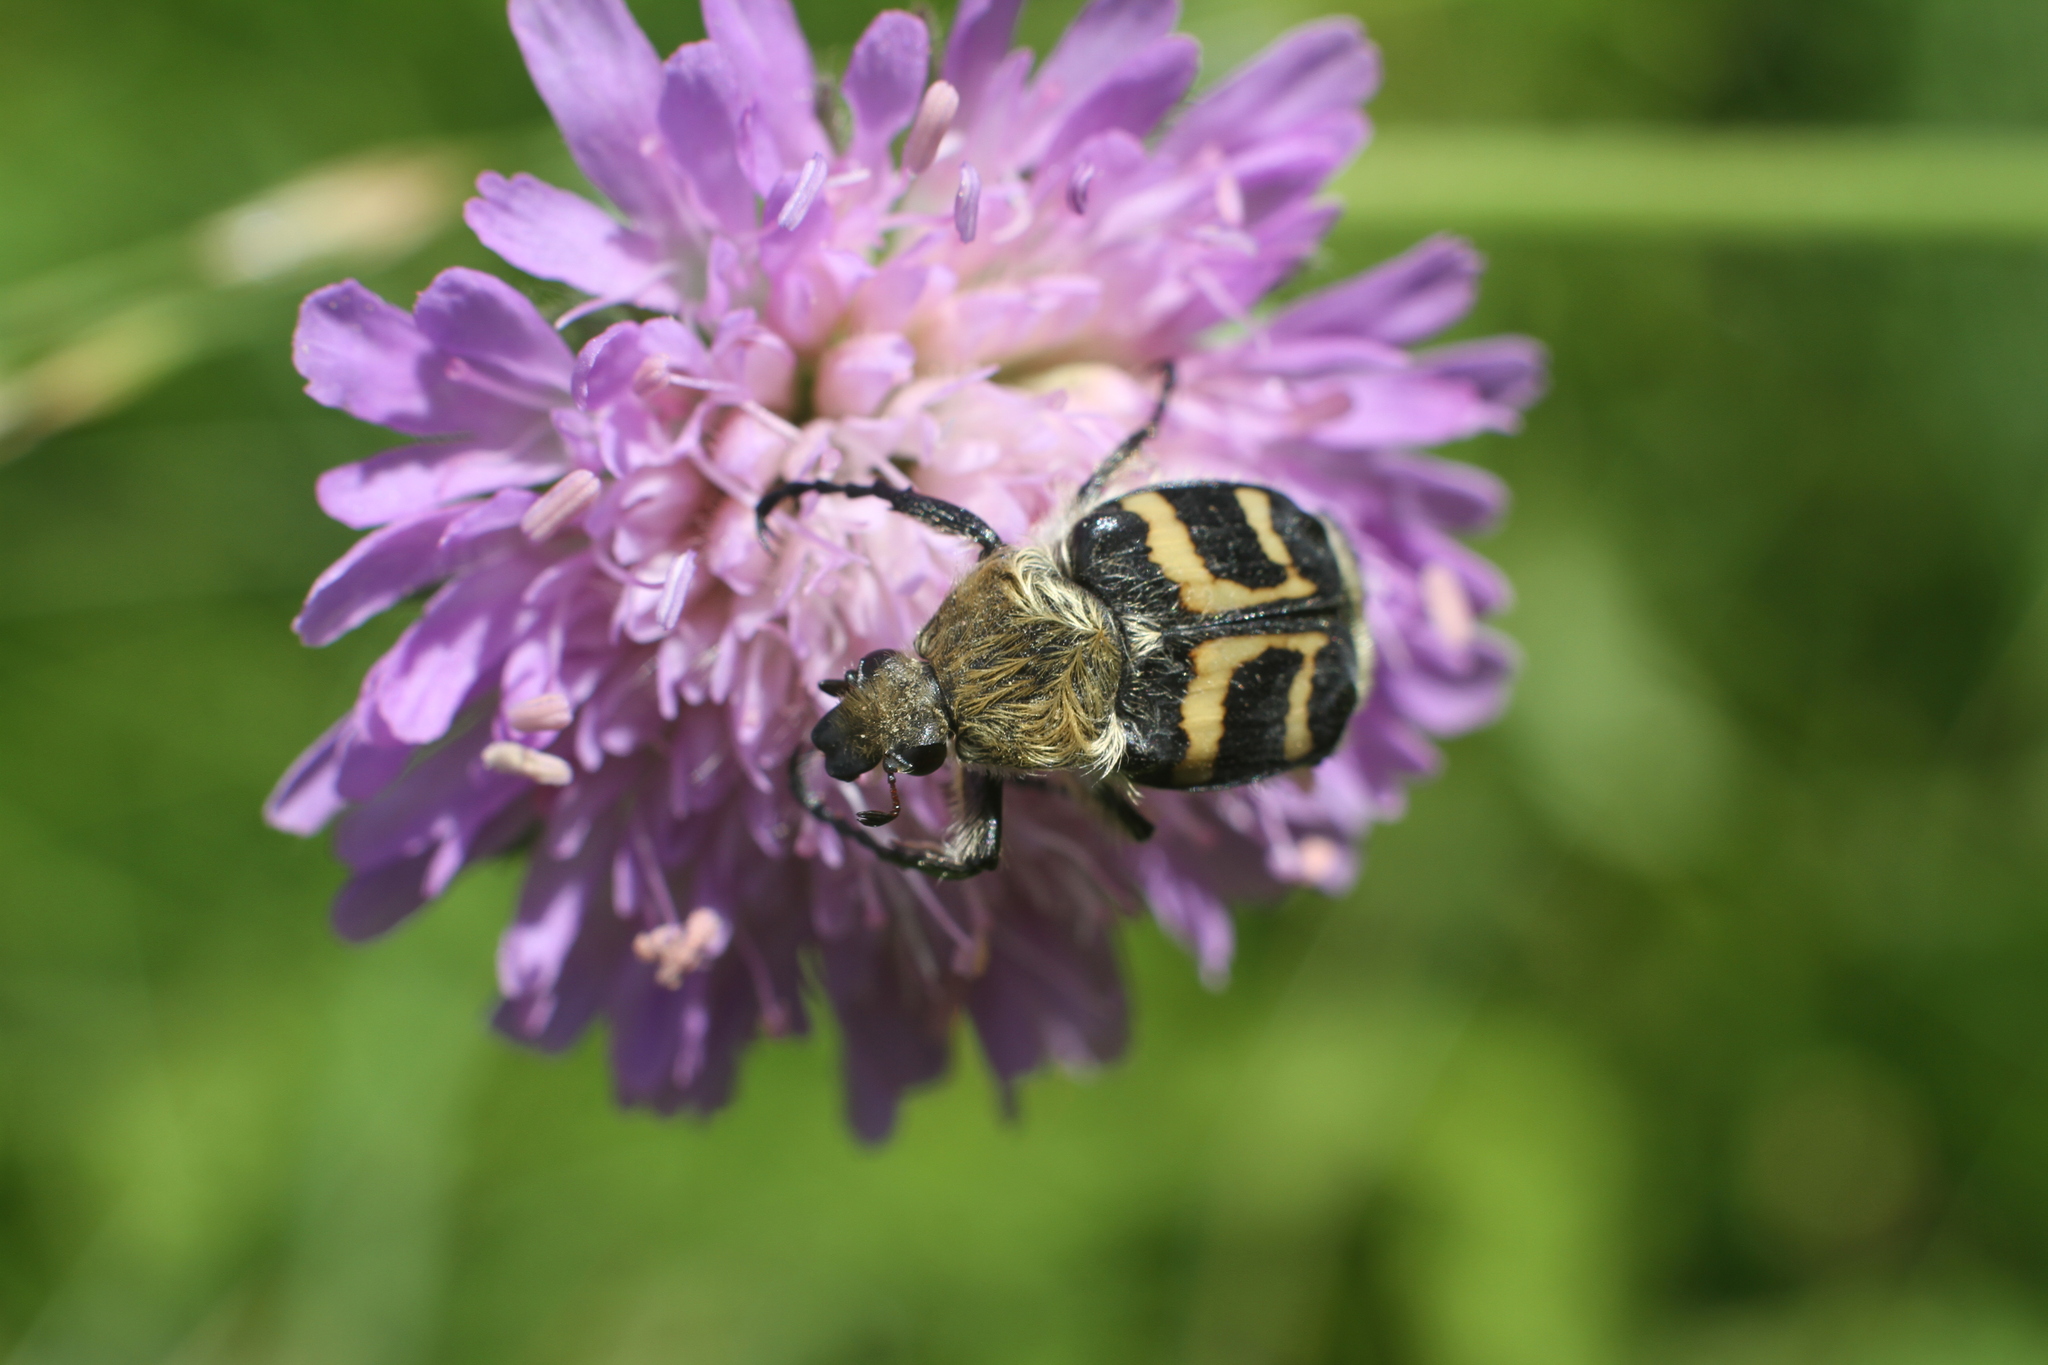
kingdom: Animalia
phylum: Arthropoda
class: Insecta
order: Coleoptera
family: Scarabaeidae
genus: Trichius
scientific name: Trichius fasciatus
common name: Bee beetle
